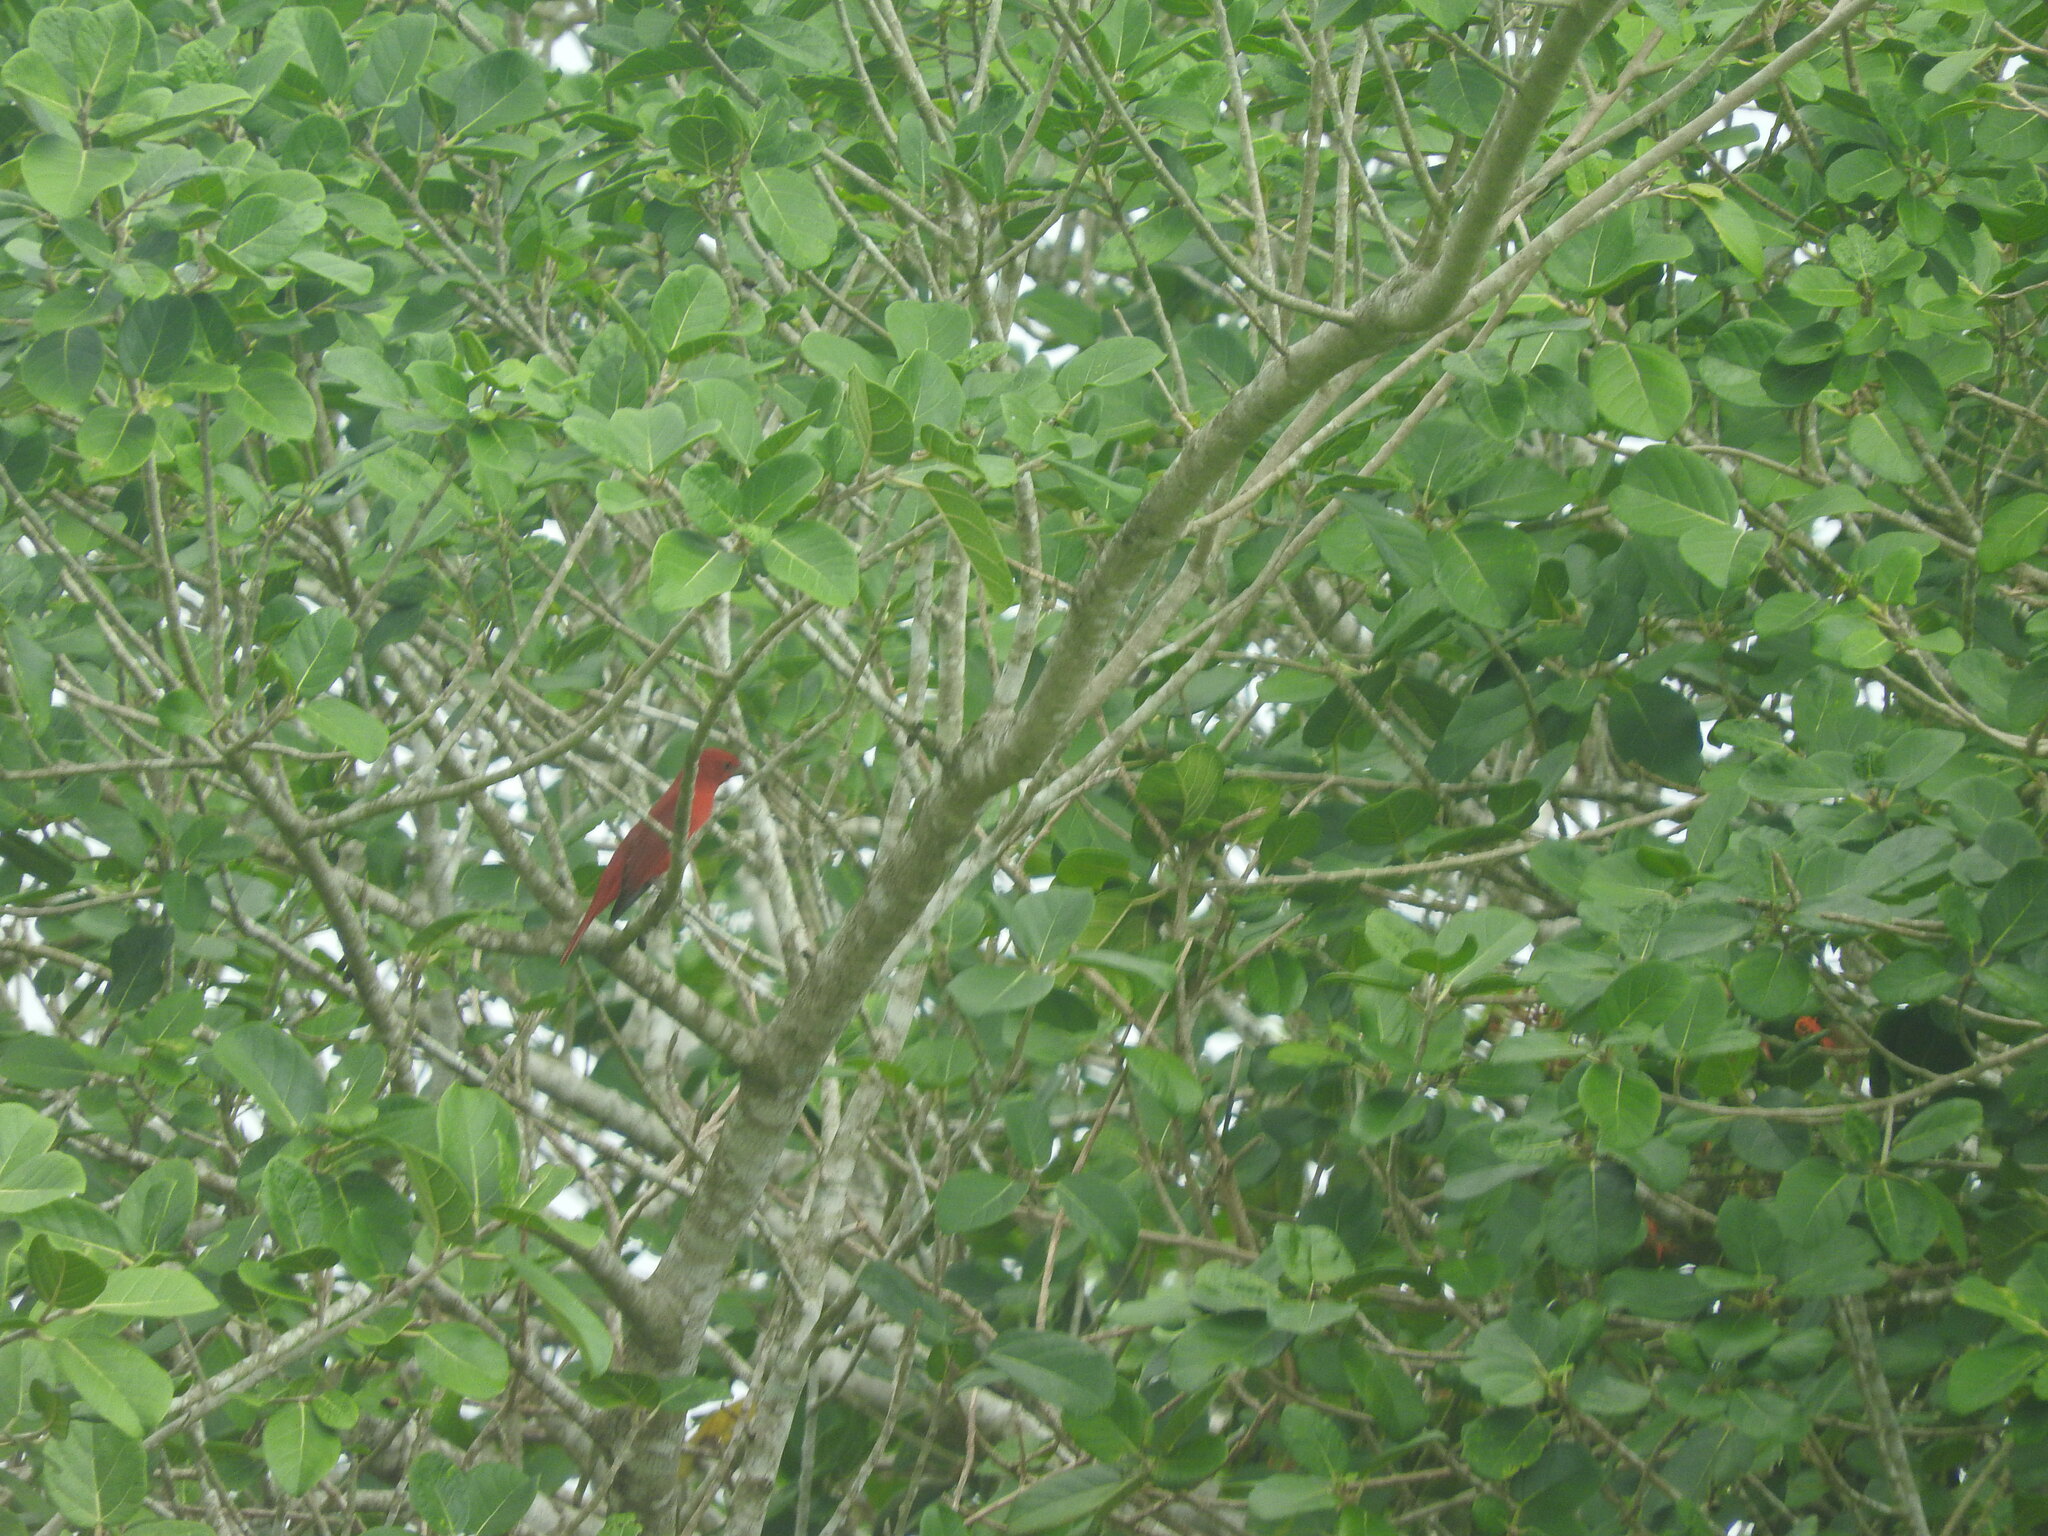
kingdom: Animalia
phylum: Chordata
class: Aves
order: Passeriformes
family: Cardinalidae
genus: Piranga
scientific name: Piranga rubra
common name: Summer tanager
